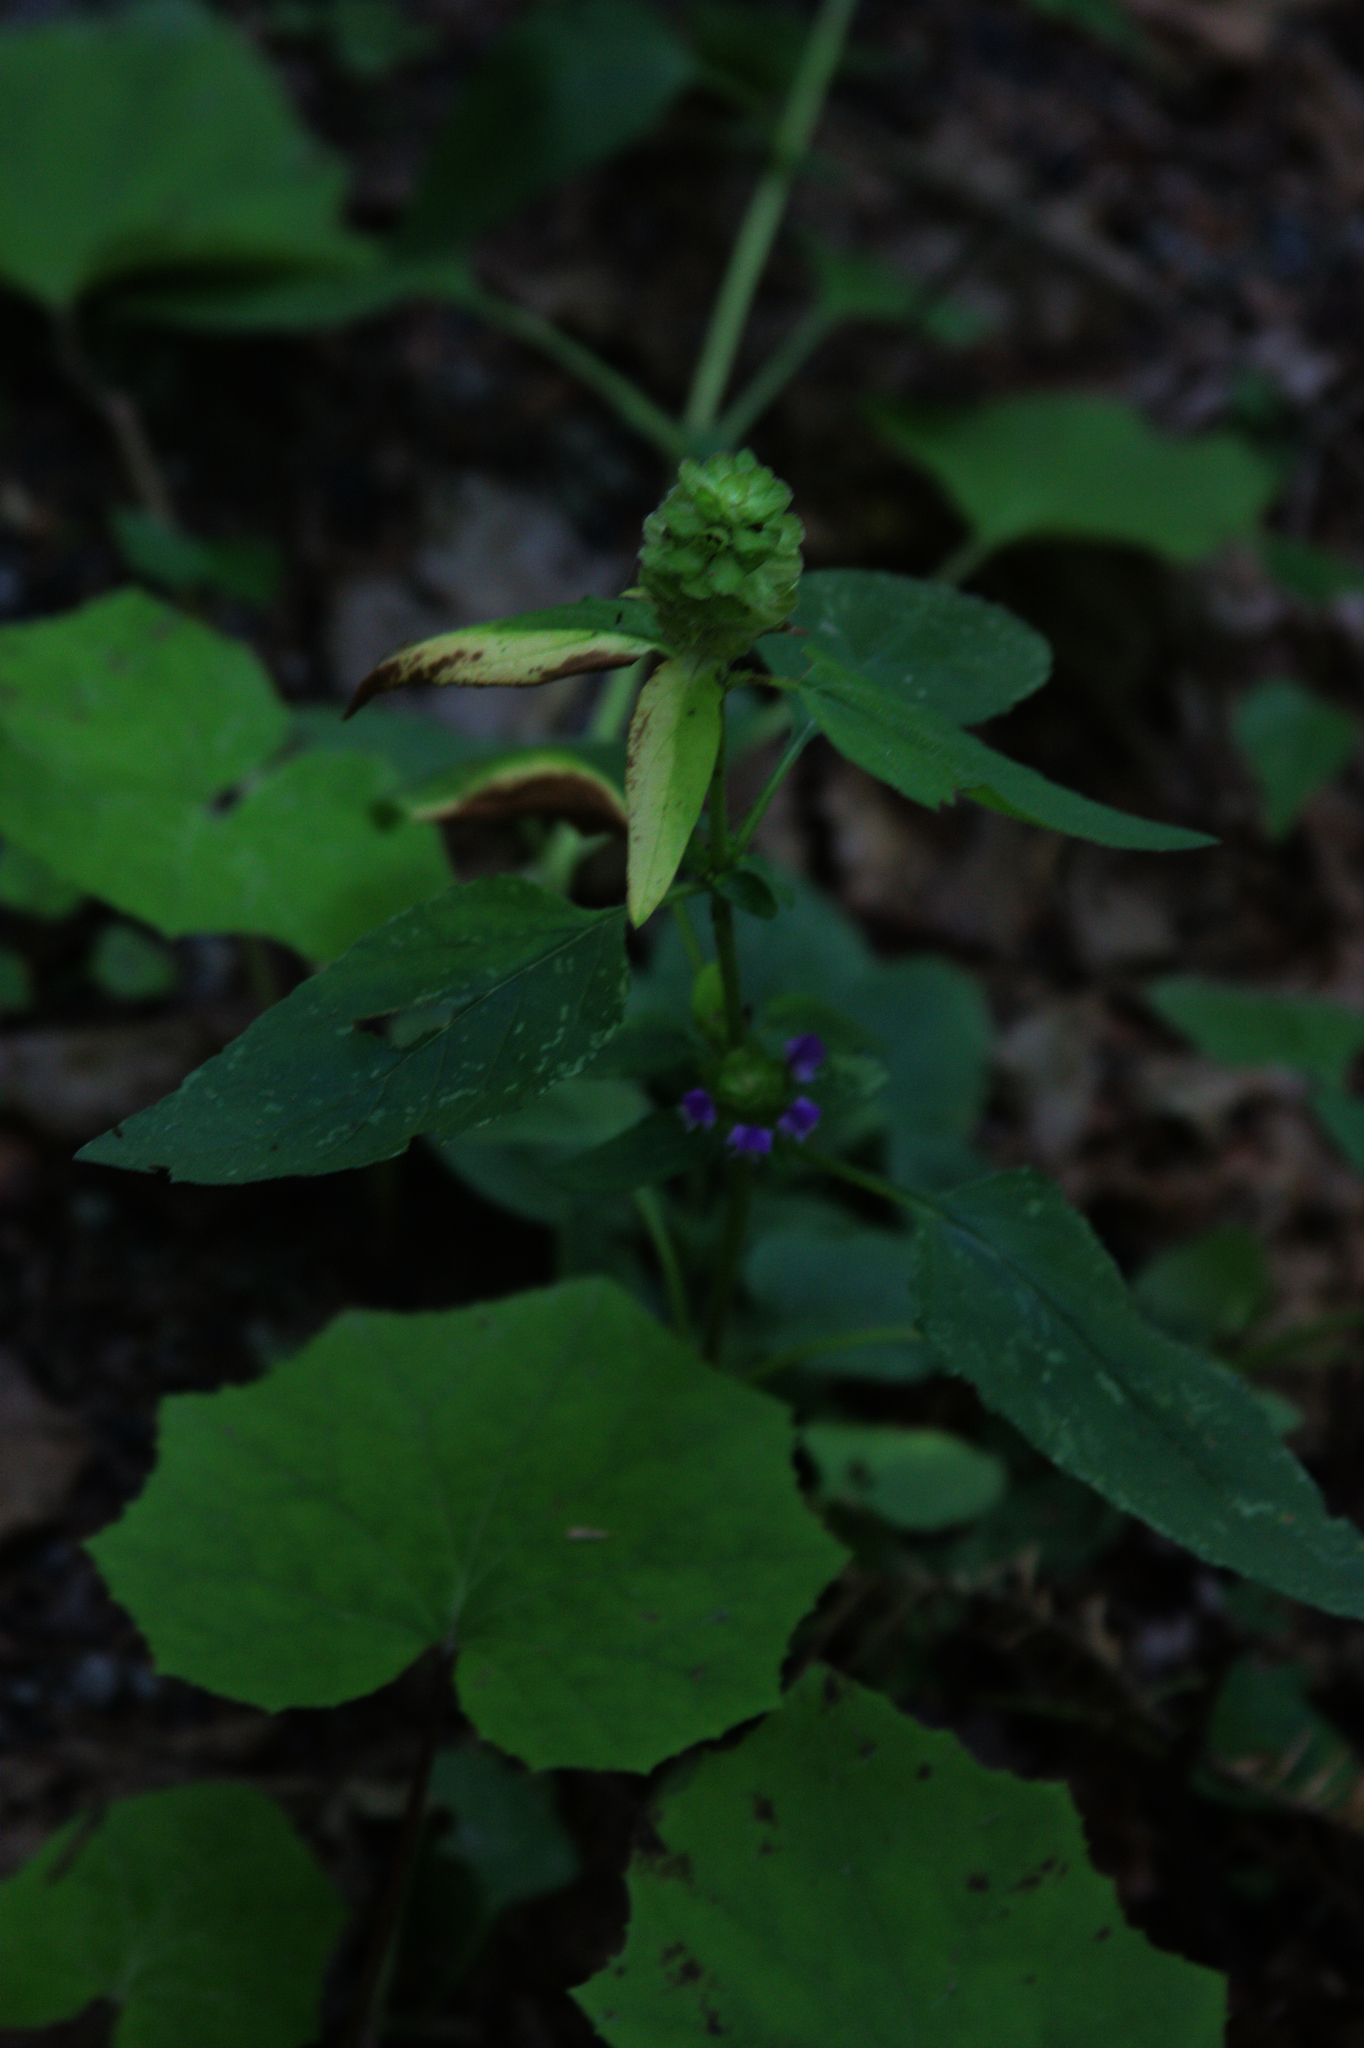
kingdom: Plantae
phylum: Tracheophyta
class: Magnoliopsida
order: Lamiales
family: Lamiaceae
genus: Prunella
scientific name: Prunella vulgaris
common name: Heal-all
